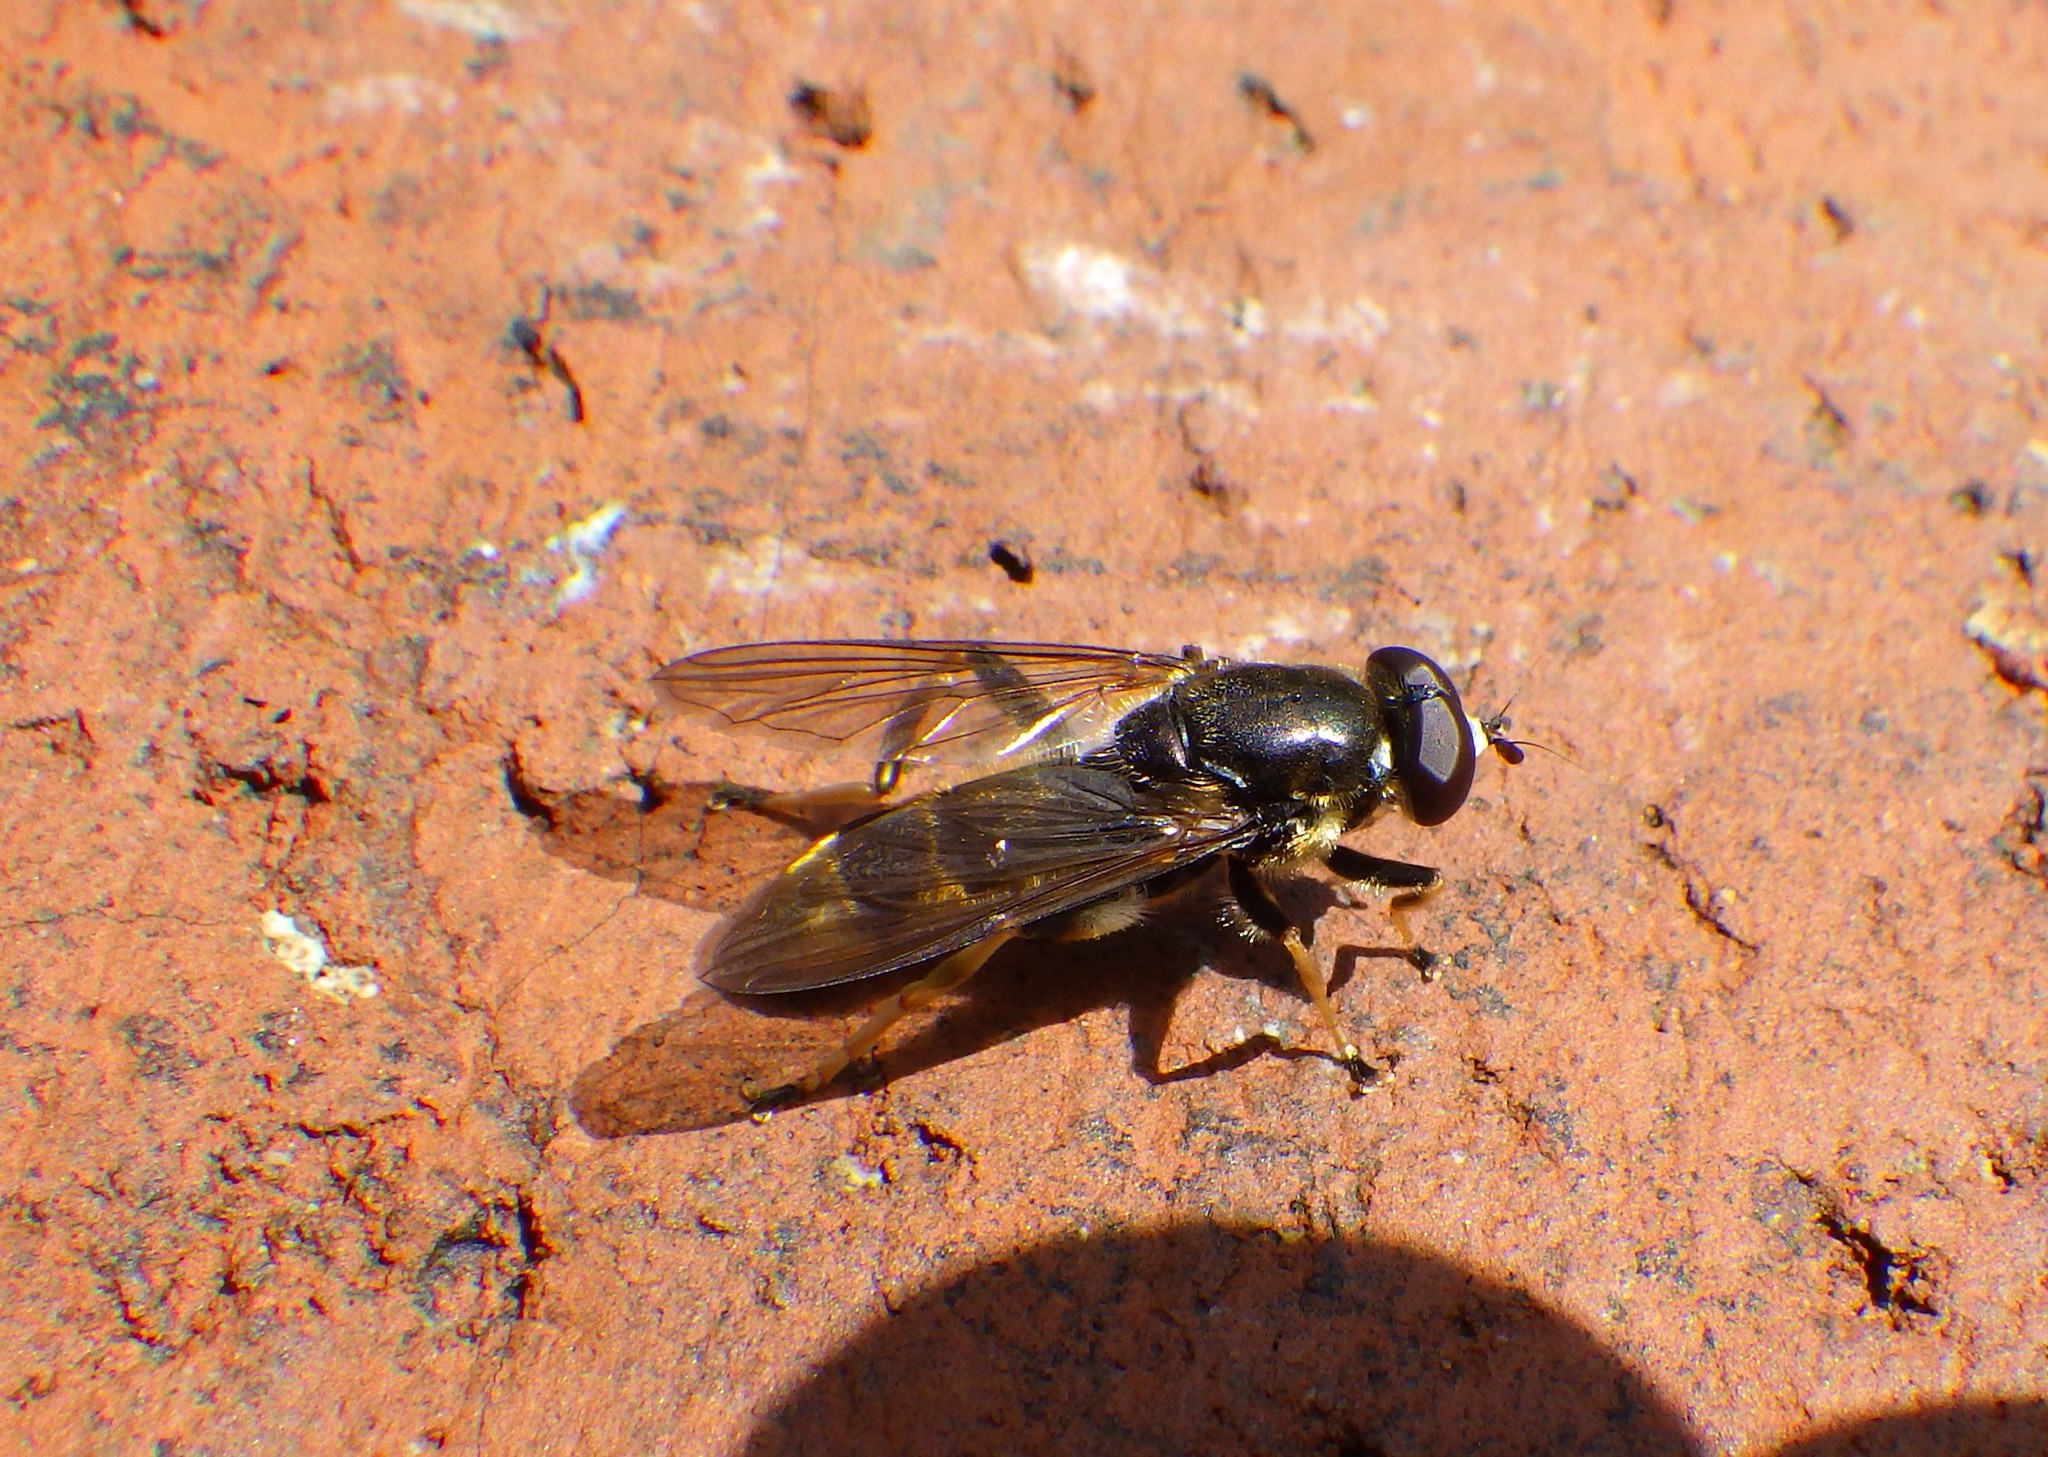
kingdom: Animalia
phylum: Arthropoda
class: Insecta
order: Diptera
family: Syrphidae
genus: Xylota
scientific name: Xylota sylvarum
